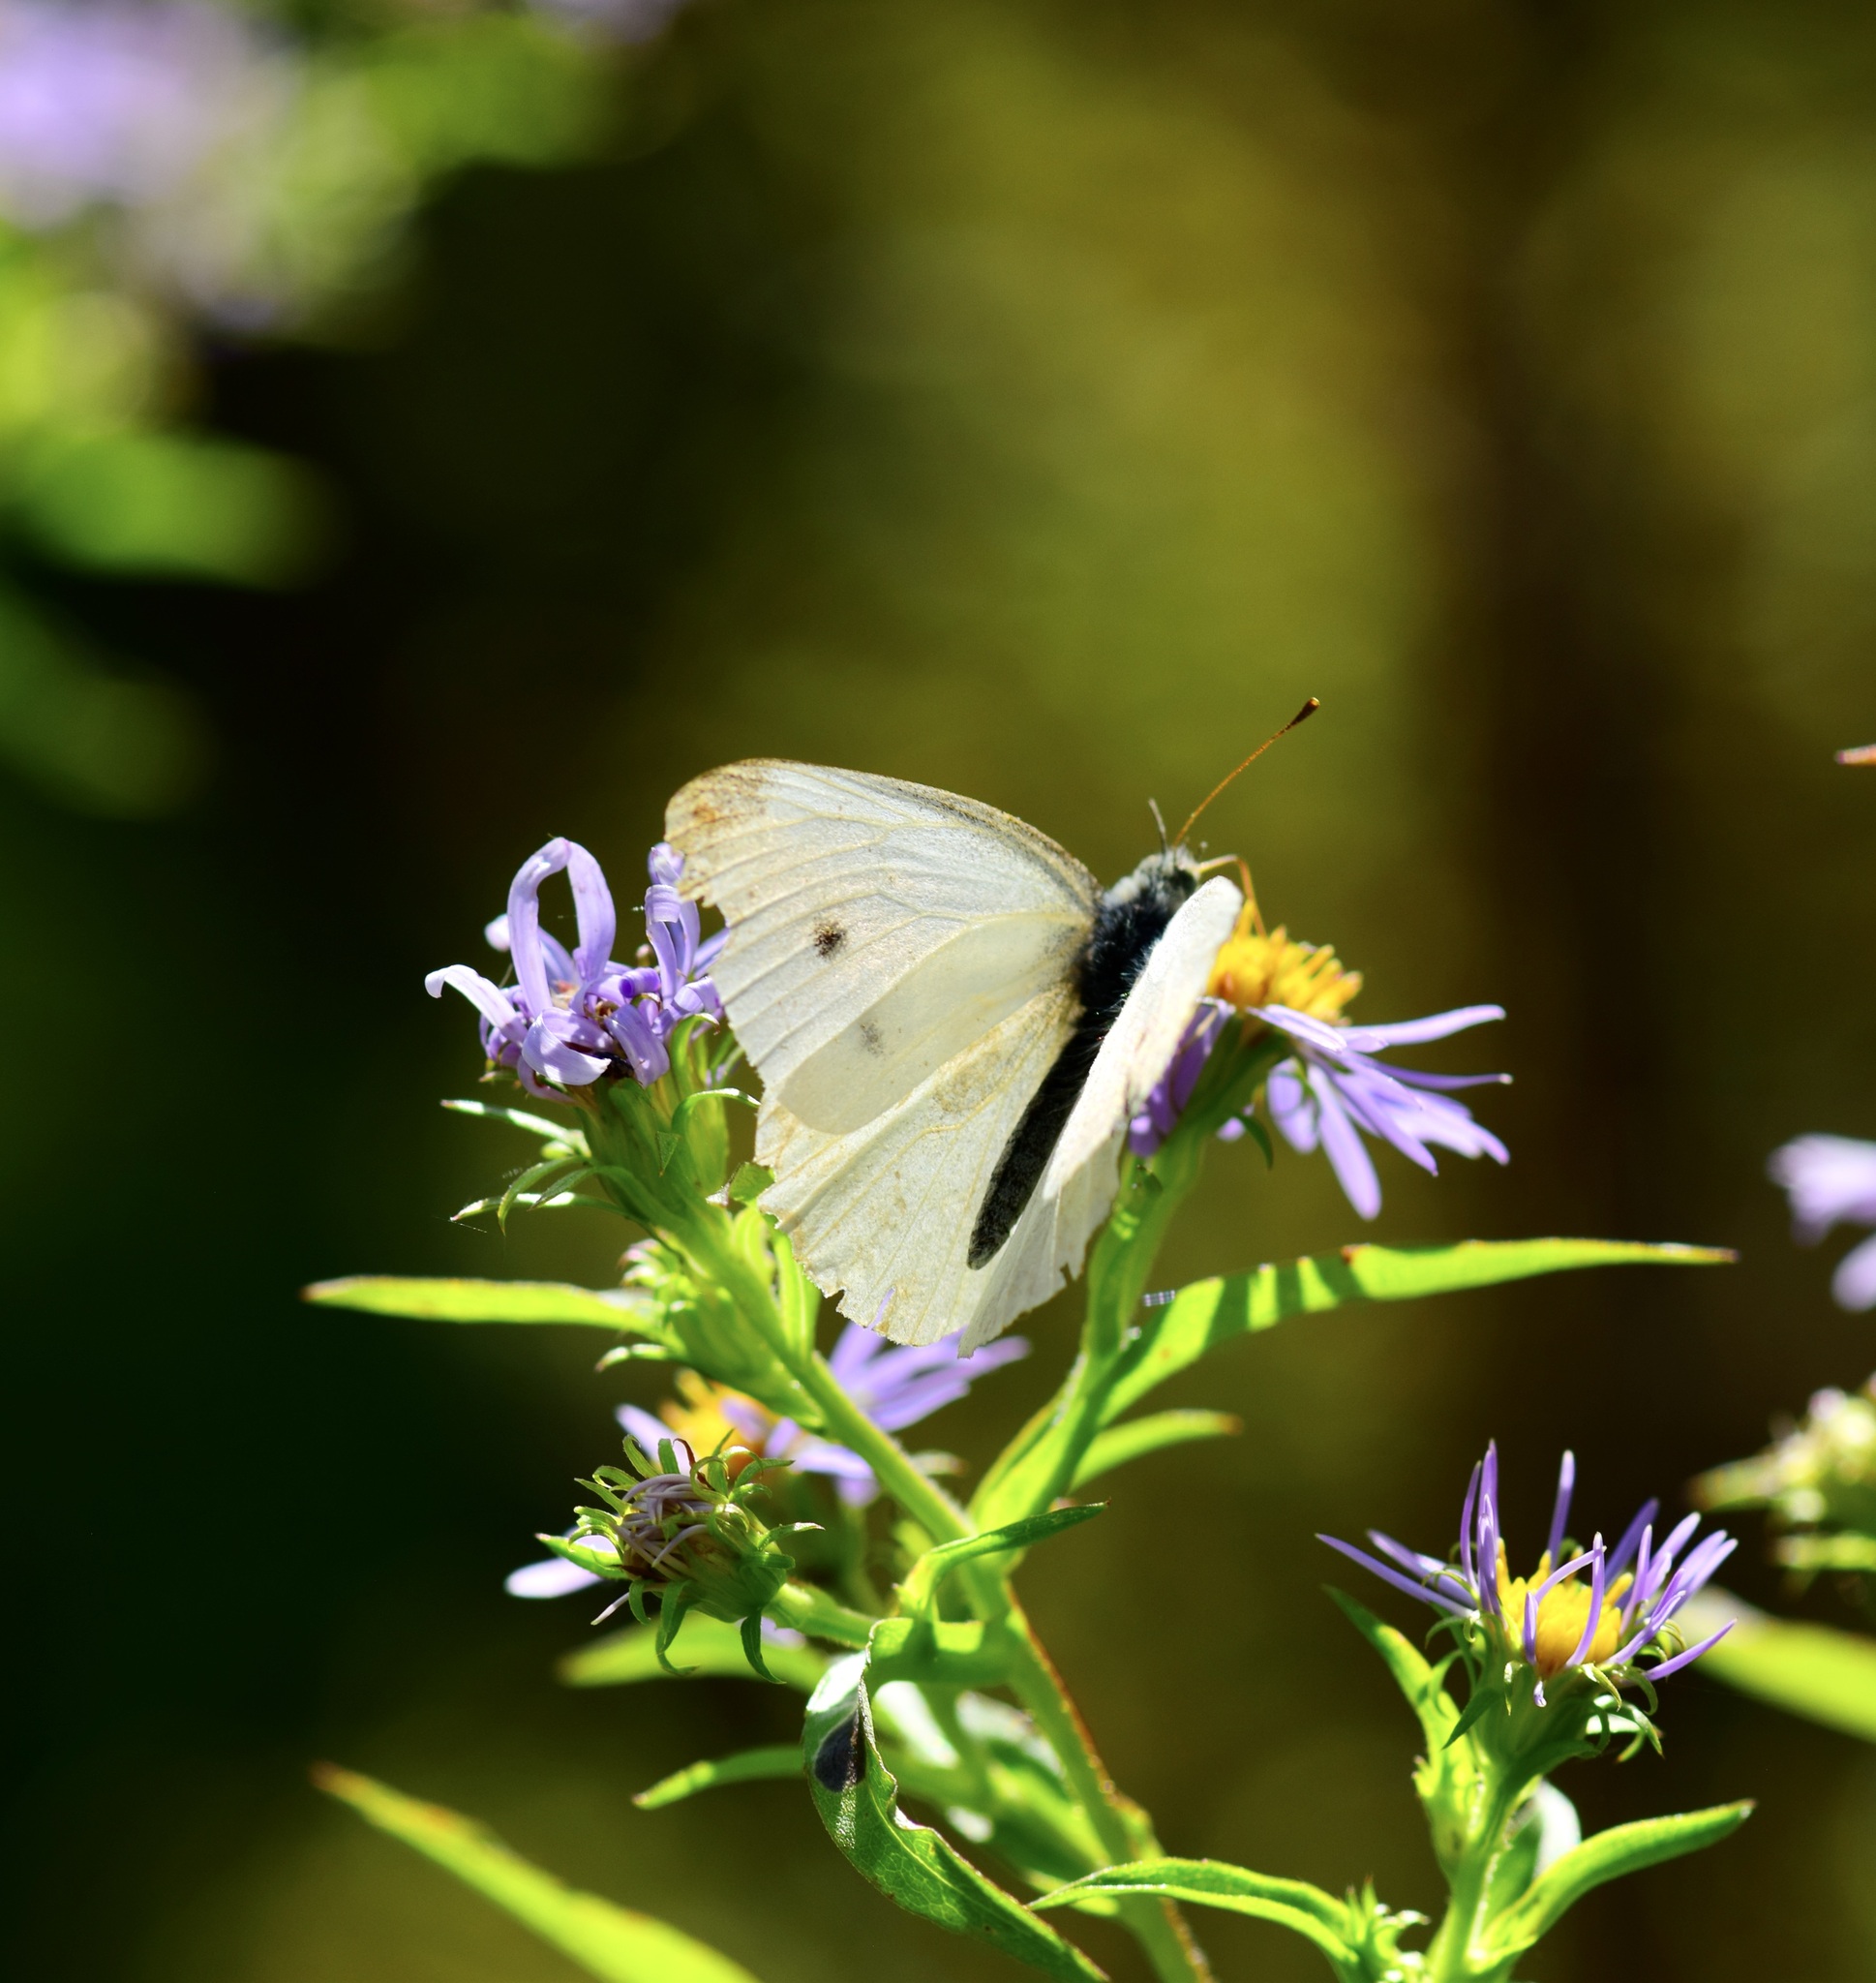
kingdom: Animalia
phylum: Arthropoda
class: Insecta
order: Lepidoptera
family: Pieridae
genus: Pieris
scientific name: Pieris rapae
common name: Small white
